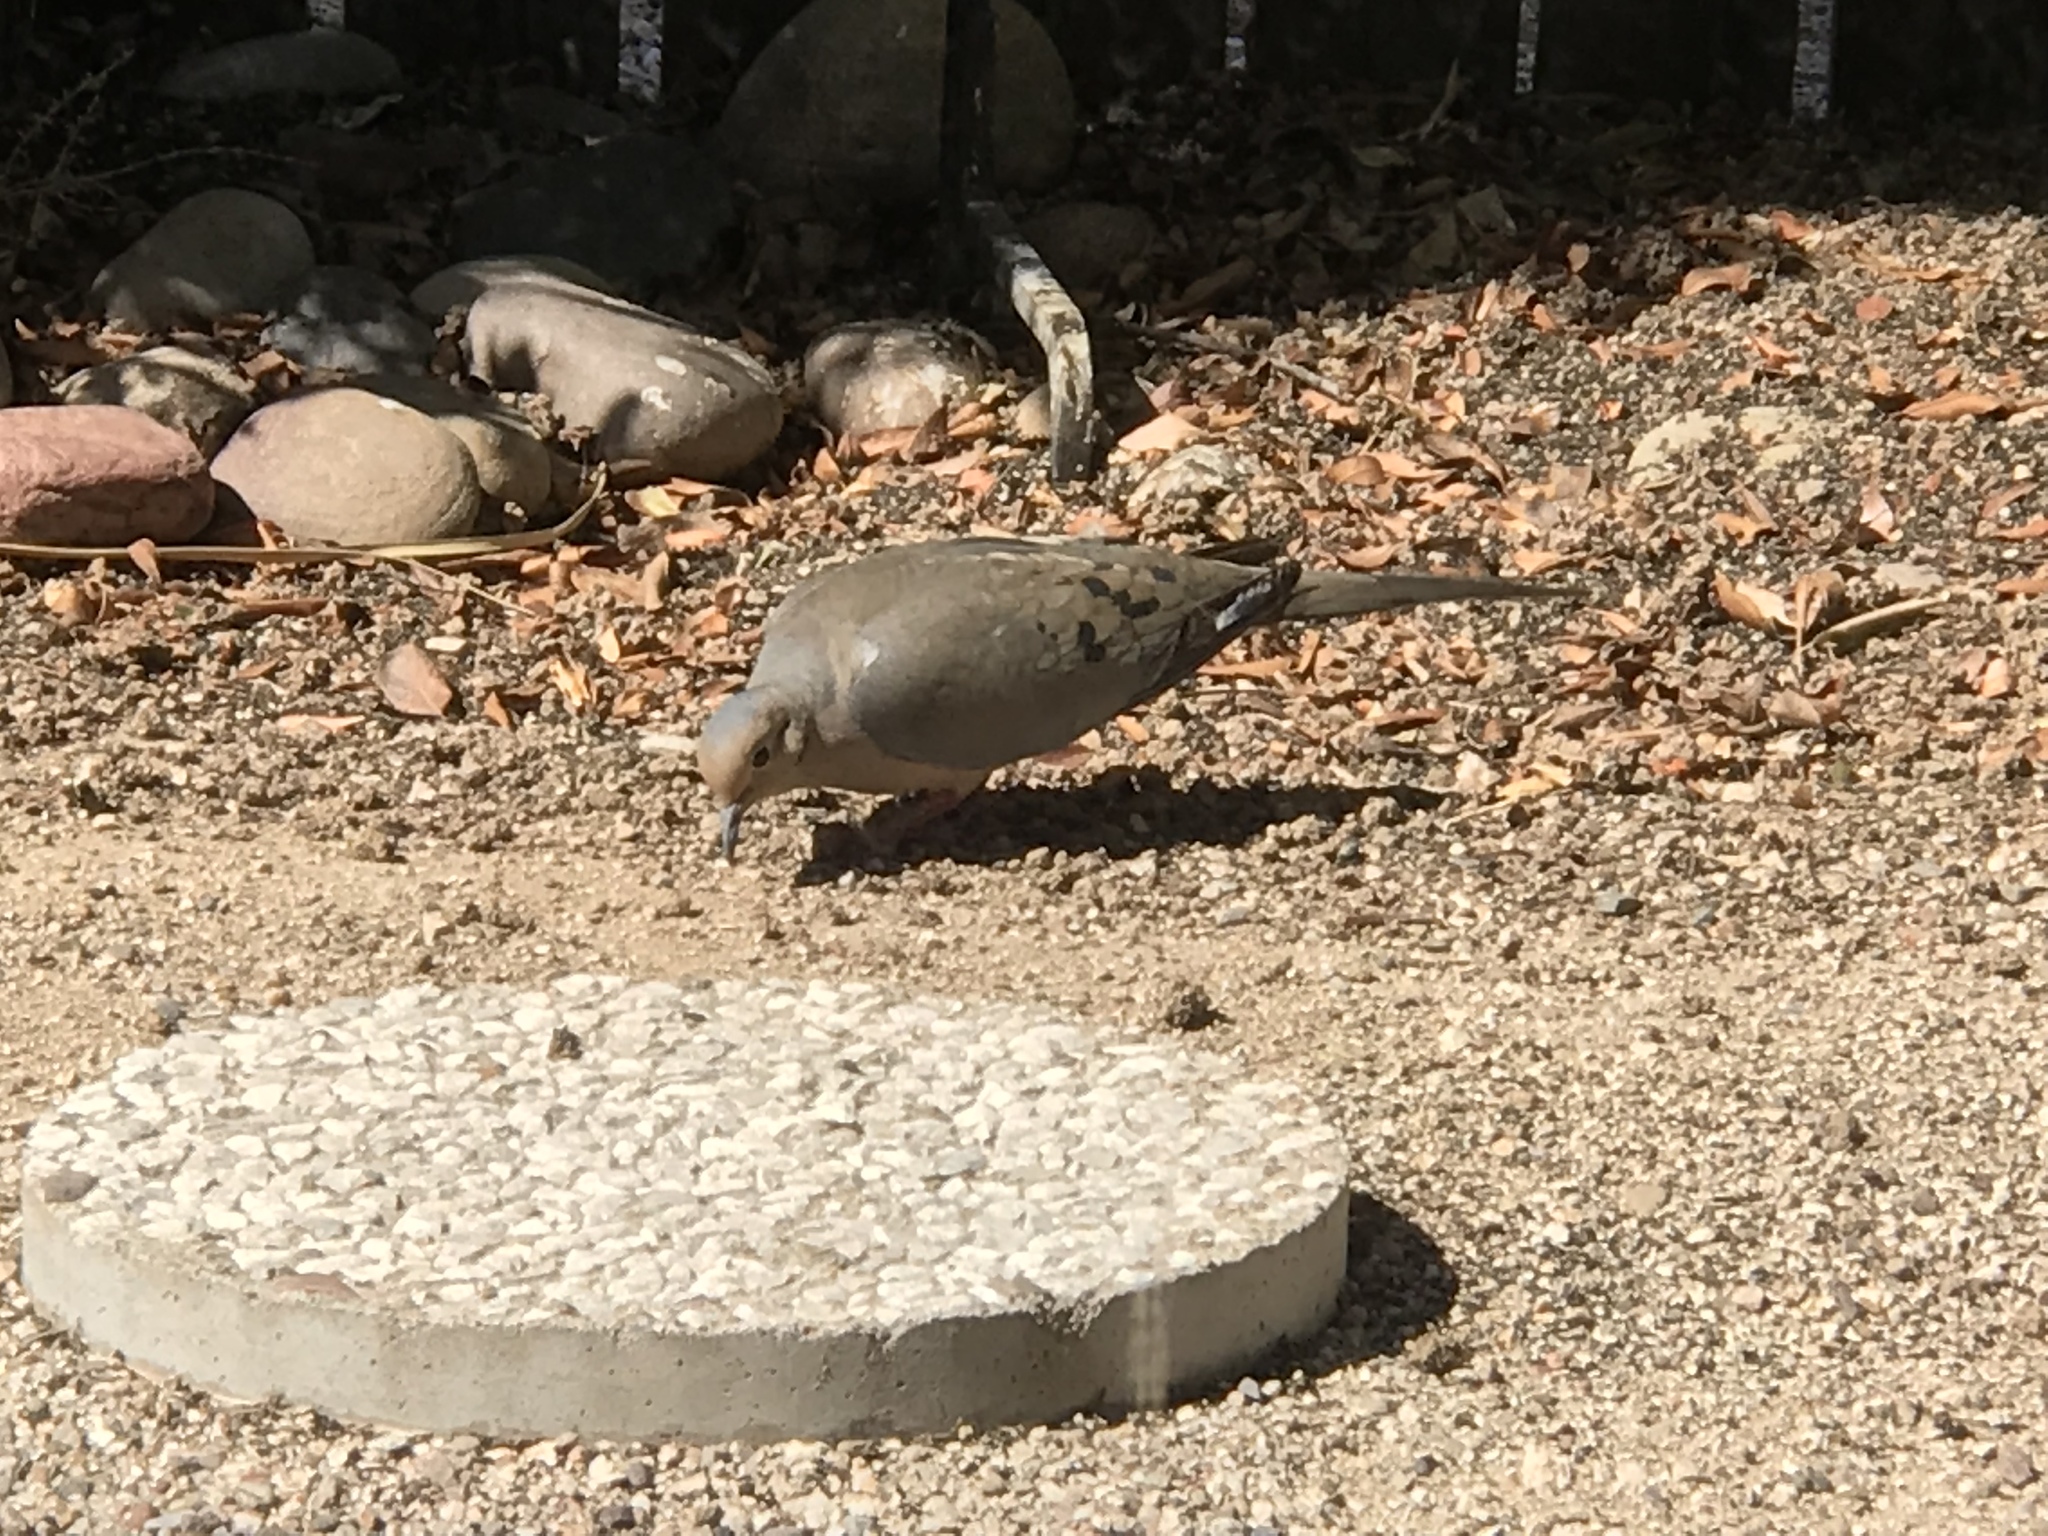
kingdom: Animalia
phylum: Chordata
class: Aves
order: Columbiformes
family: Columbidae
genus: Zenaida
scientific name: Zenaida macroura
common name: Mourning dove
